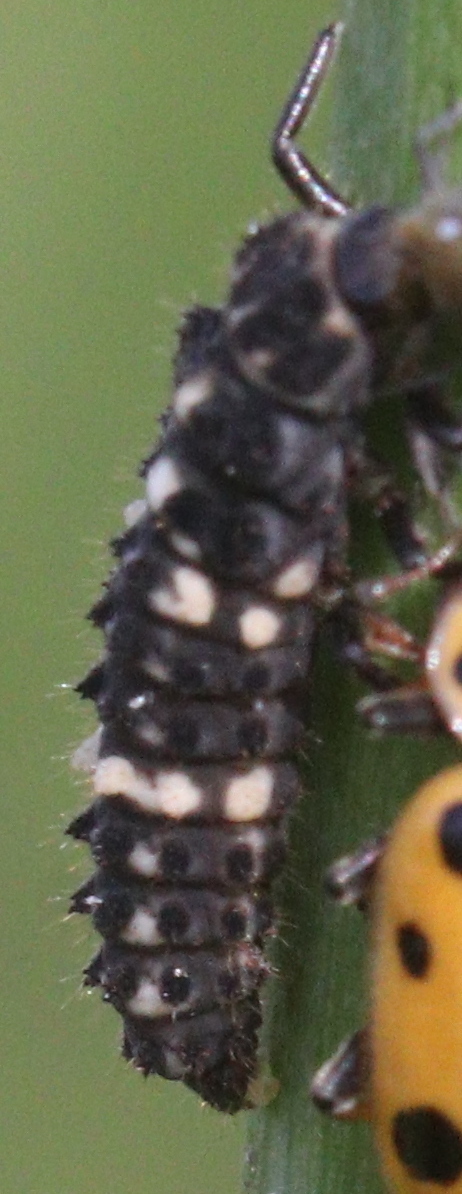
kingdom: Animalia
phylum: Arthropoda
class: Insecta
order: Coleoptera
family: Coccinellidae
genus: Hippodamia
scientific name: Hippodamia tredecimpunctata
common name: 13-spot ladybird
